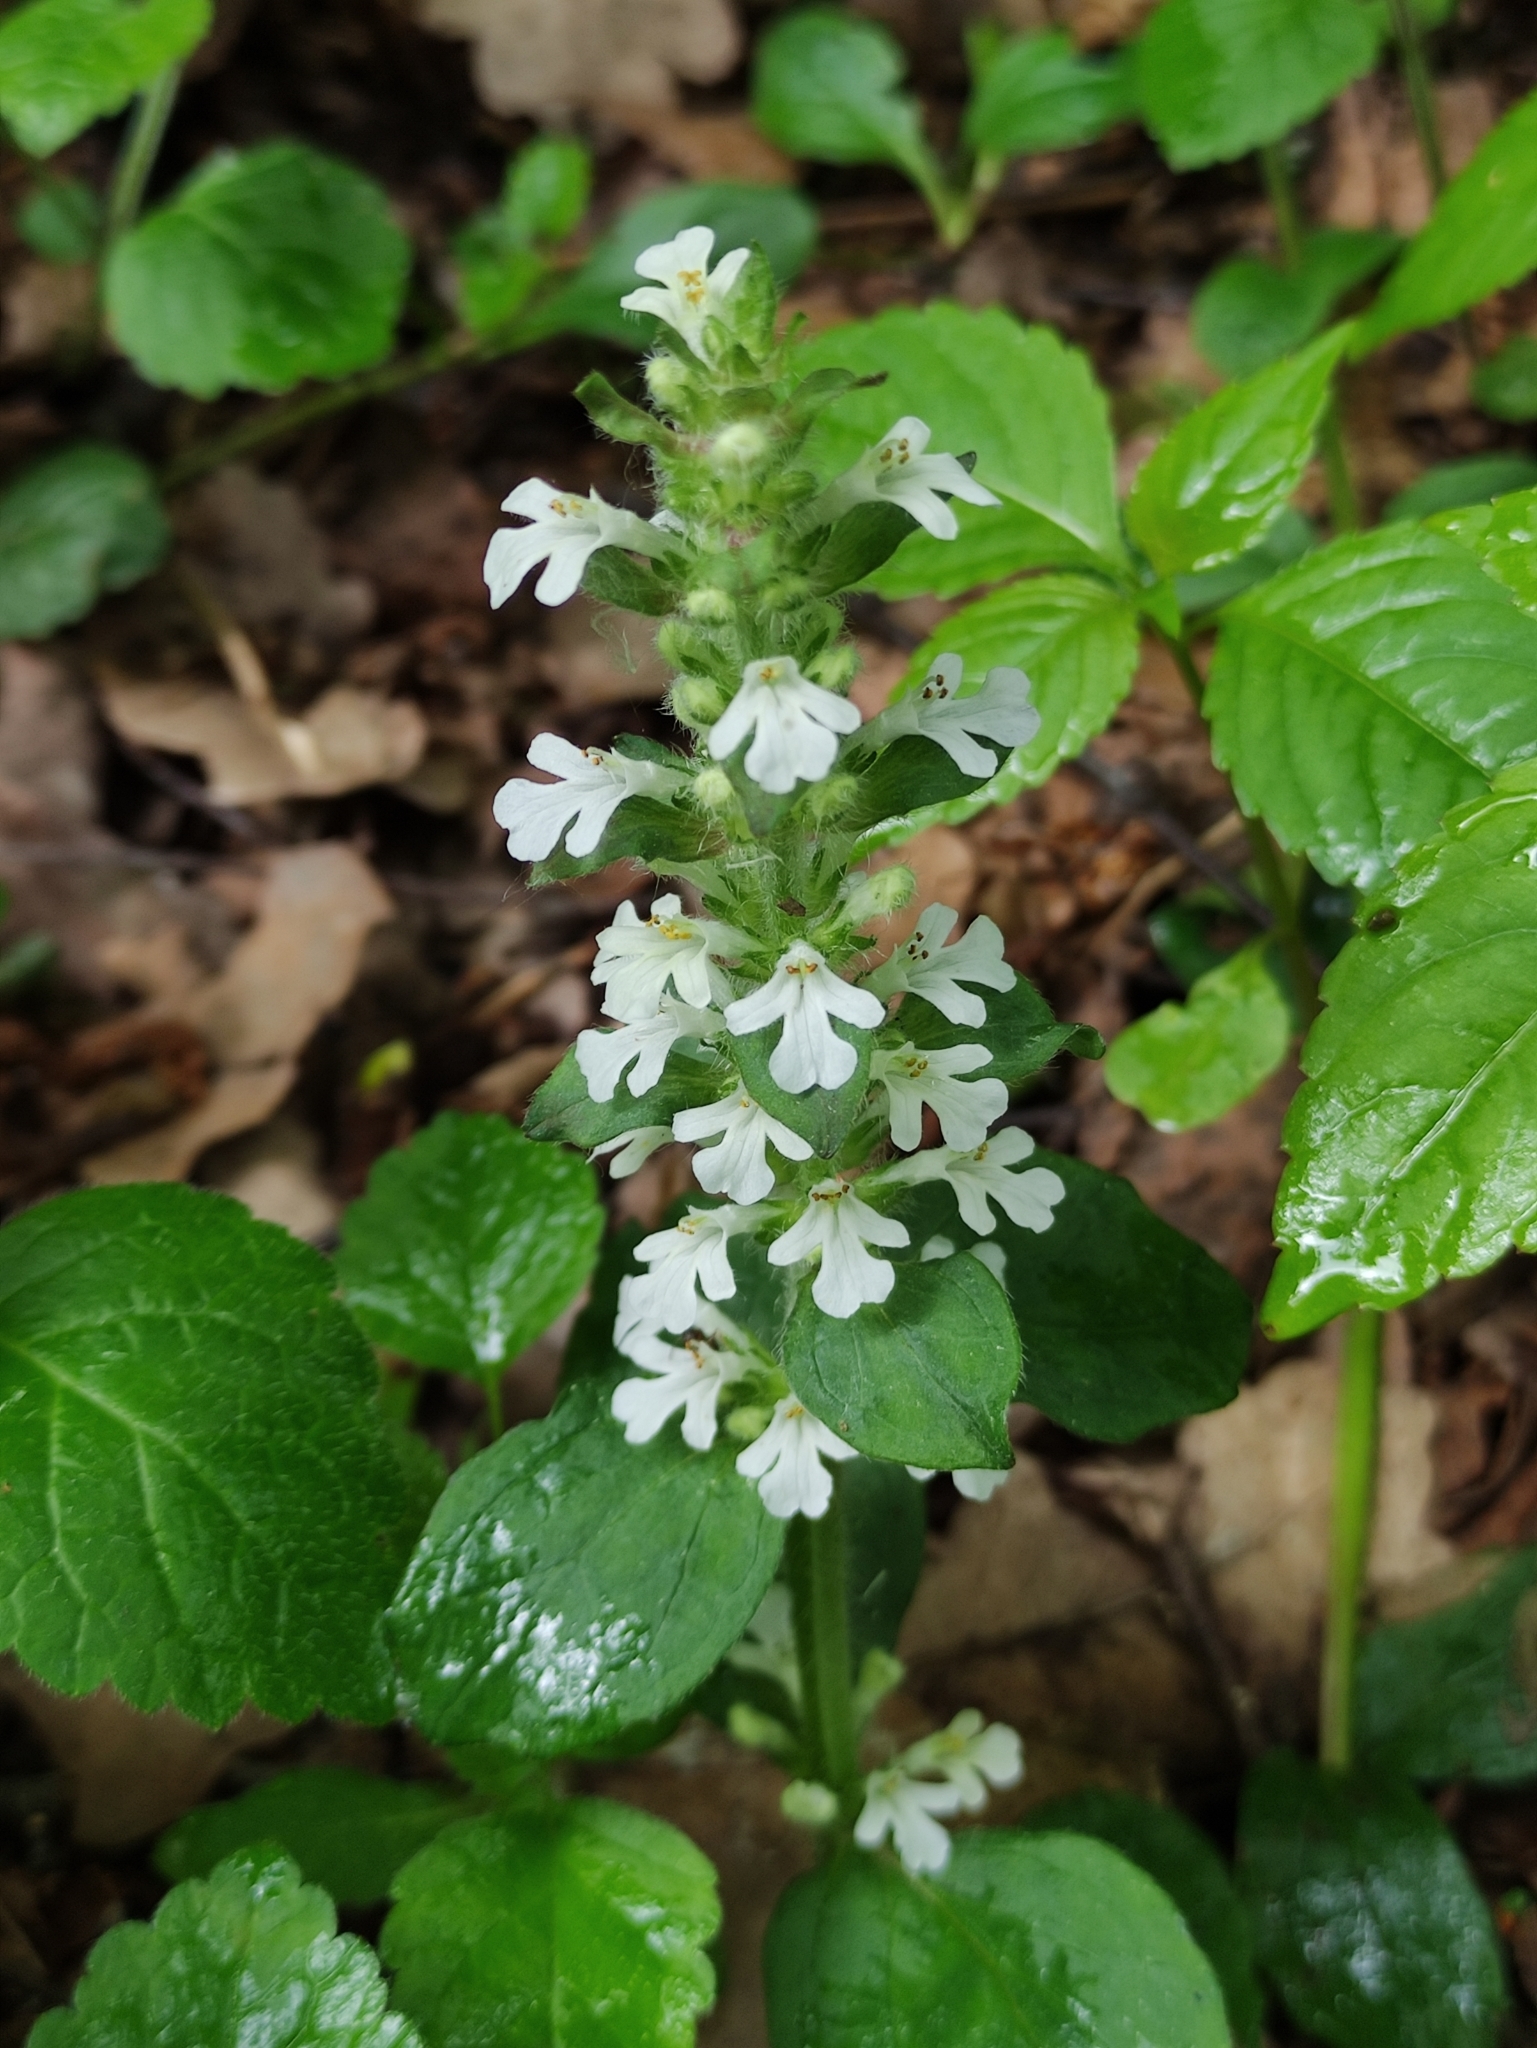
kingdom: Plantae
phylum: Tracheophyta
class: Magnoliopsida
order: Lamiales
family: Lamiaceae
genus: Ajuga
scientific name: Ajuga reptans
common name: Bugle
